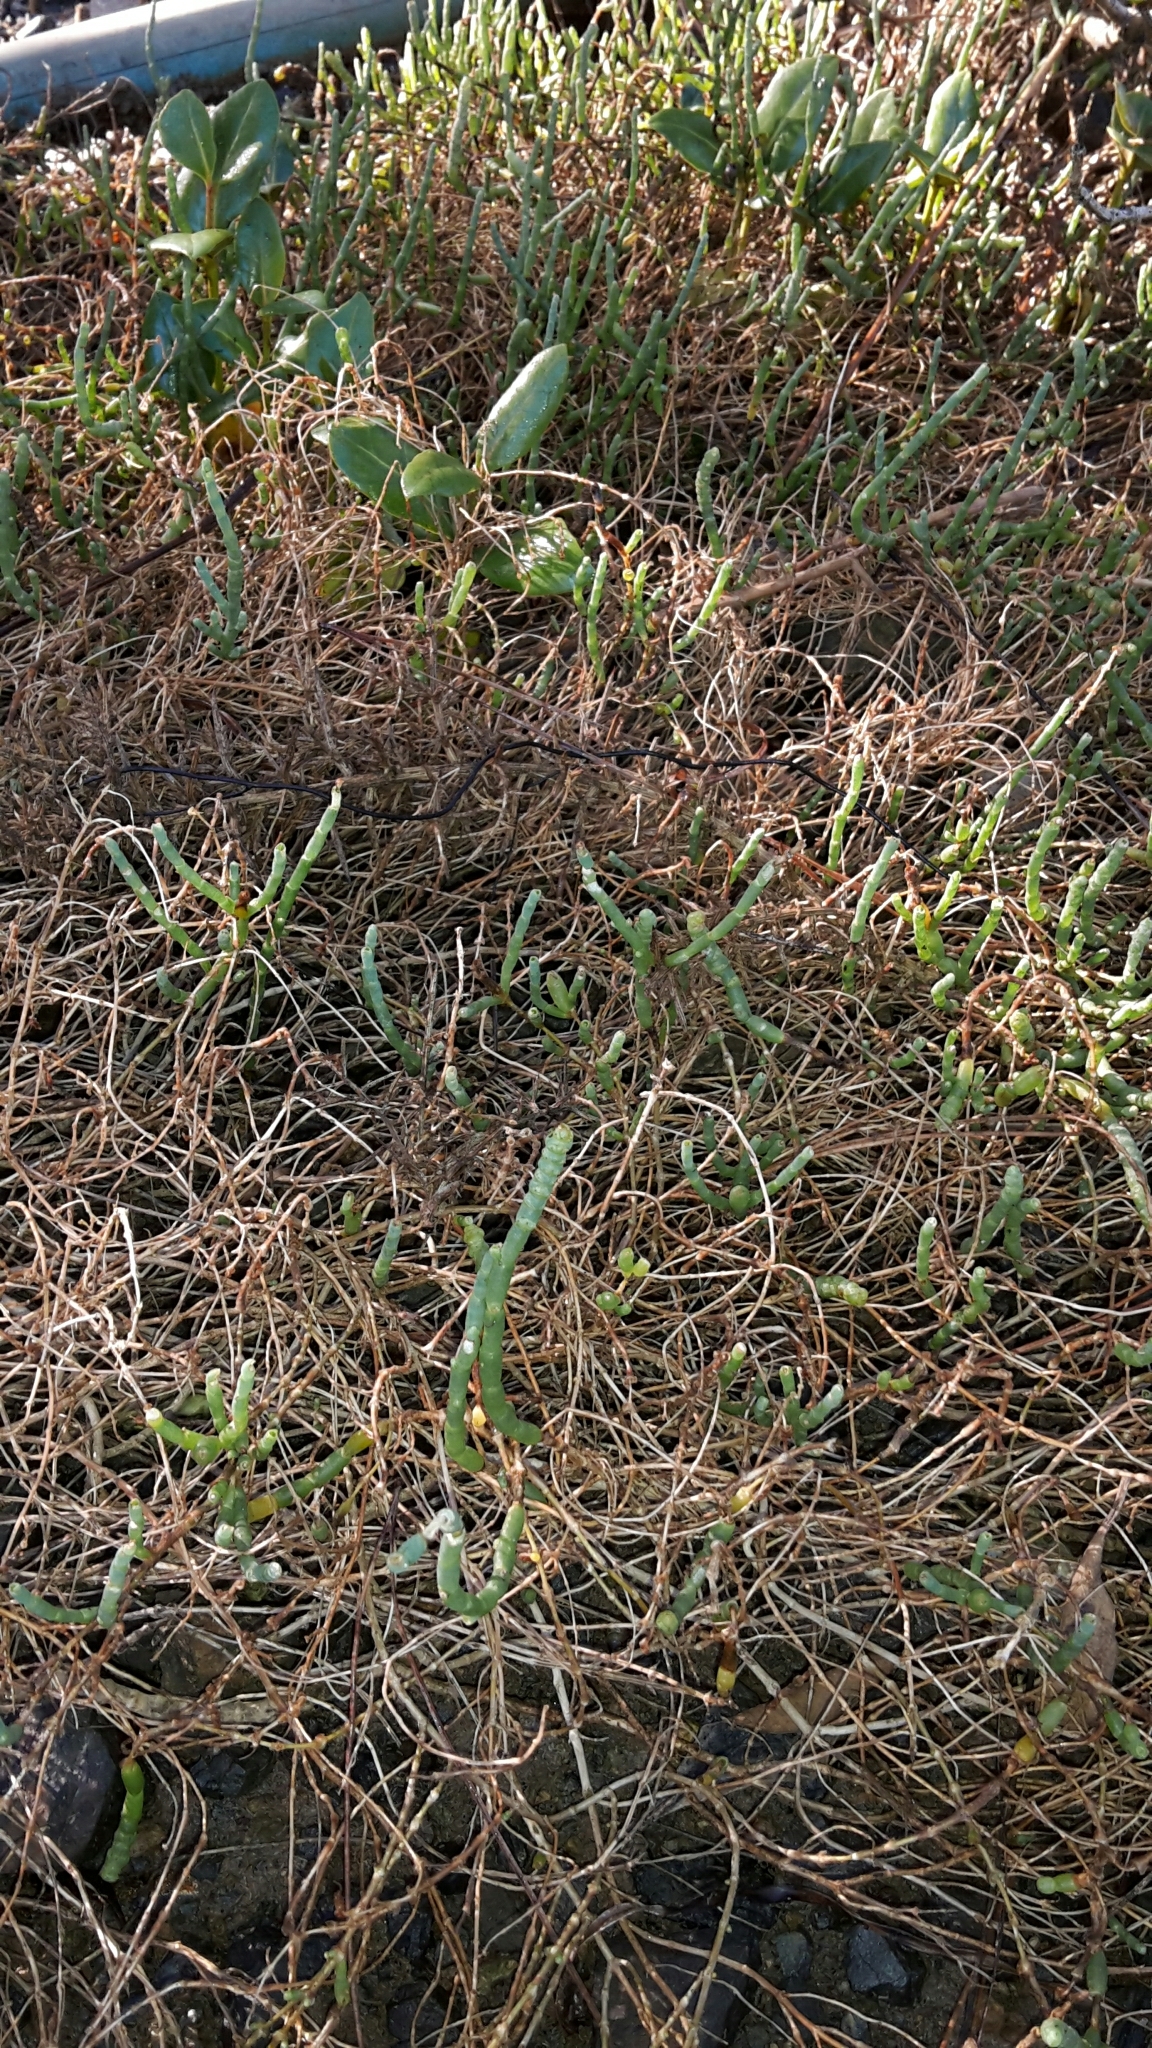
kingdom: Plantae
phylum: Tracheophyta
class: Magnoliopsida
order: Caryophyllales
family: Amaranthaceae
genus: Salicornia
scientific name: Salicornia quinqueflora
